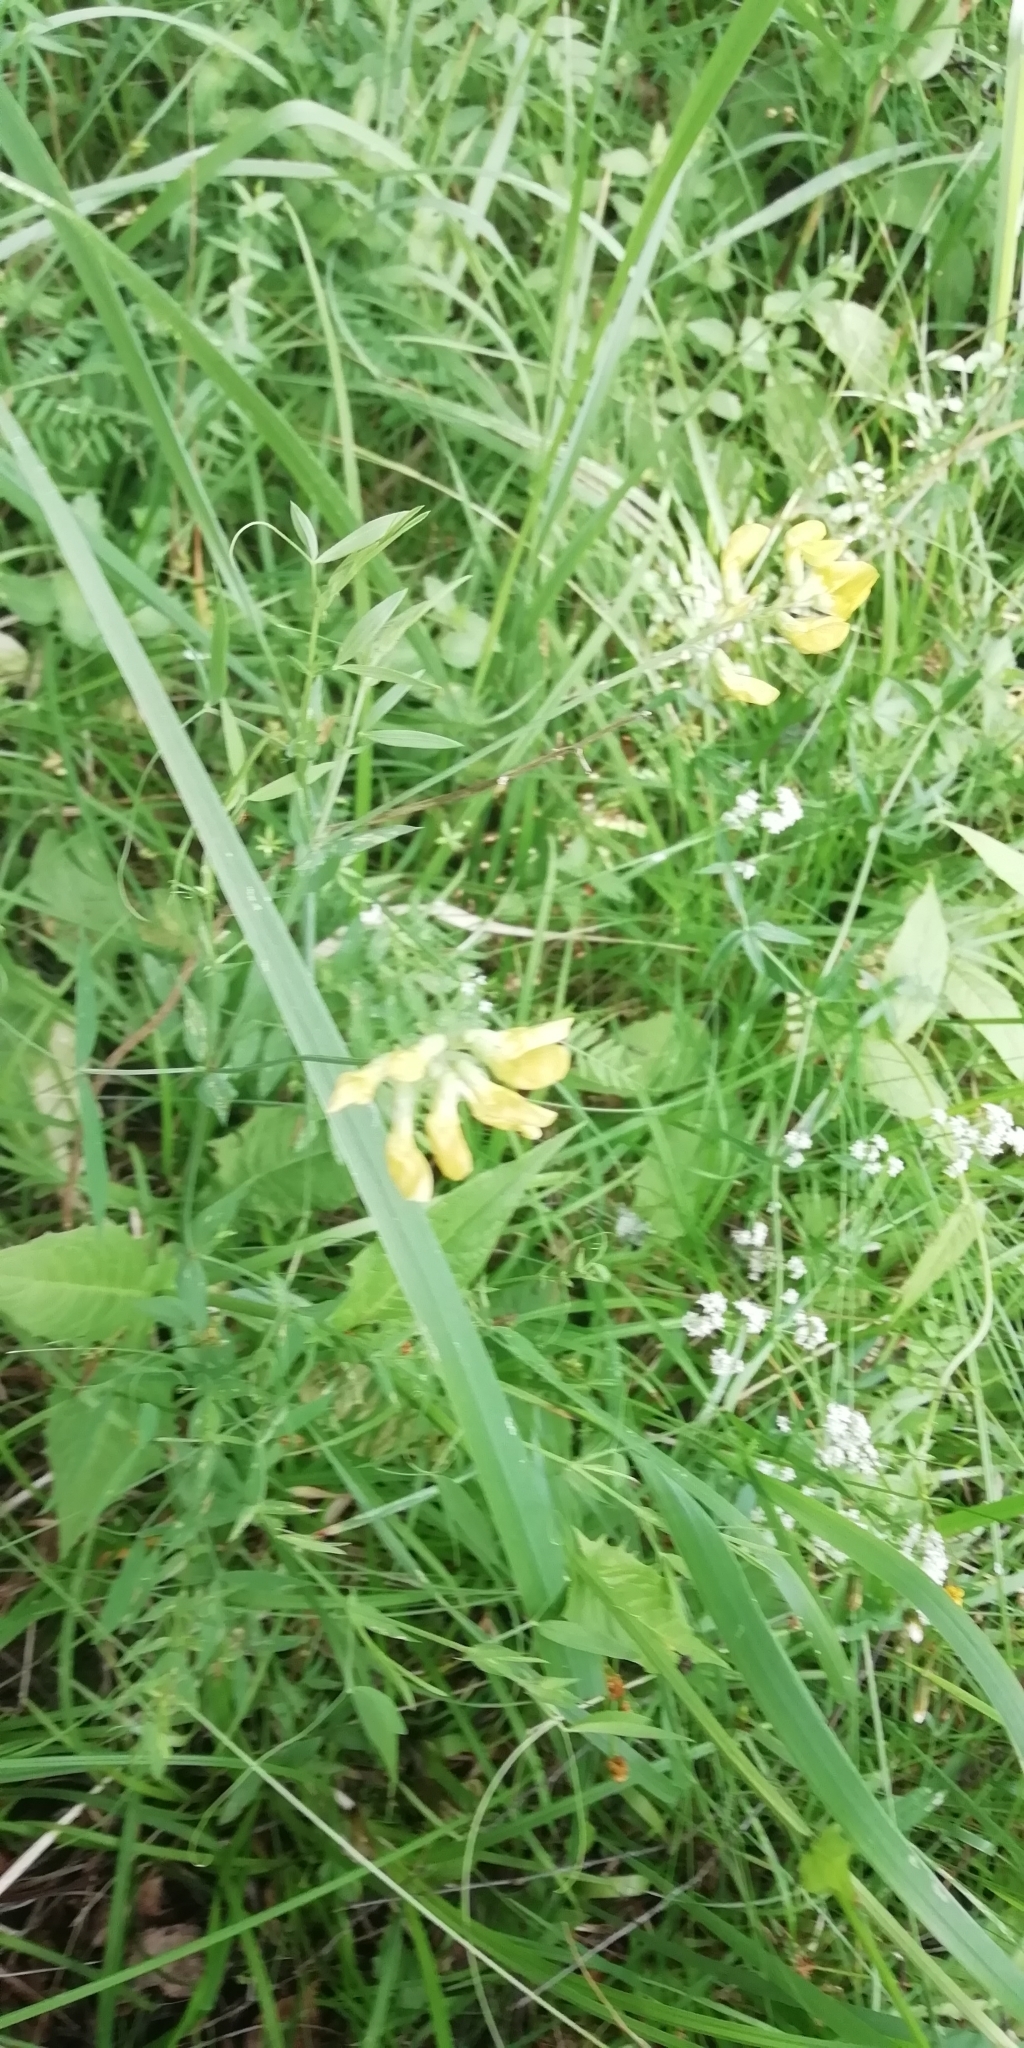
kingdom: Plantae
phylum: Tracheophyta
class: Magnoliopsida
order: Fabales
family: Fabaceae
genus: Lathyrus
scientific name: Lathyrus pratensis
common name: Meadow vetchling
